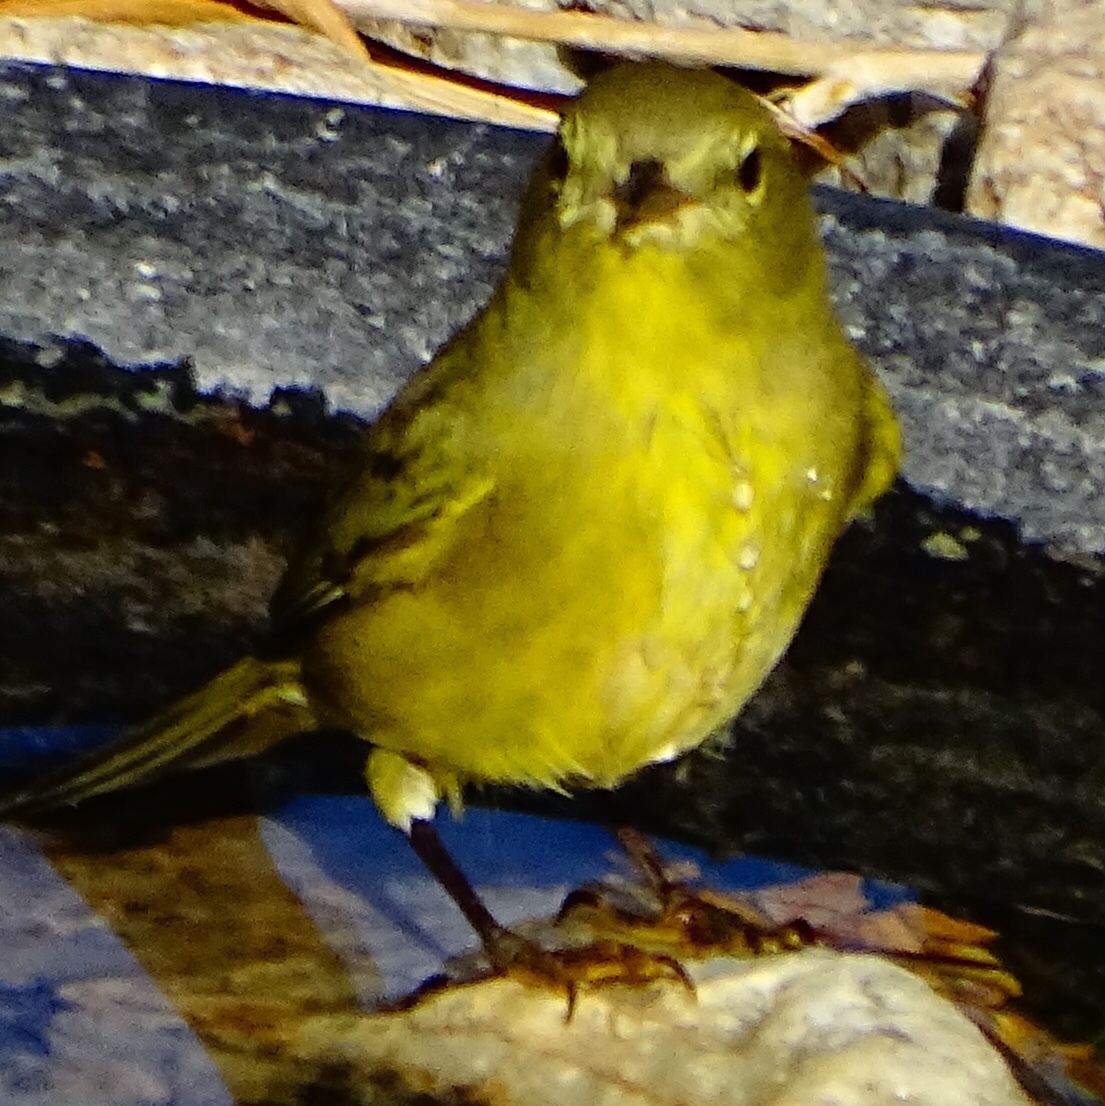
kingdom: Animalia
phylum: Chordata
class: Aves
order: Passeriformes
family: Parulidae
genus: Leiothlypis
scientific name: Leiothlypis celata
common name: Orange-crowned warbler
